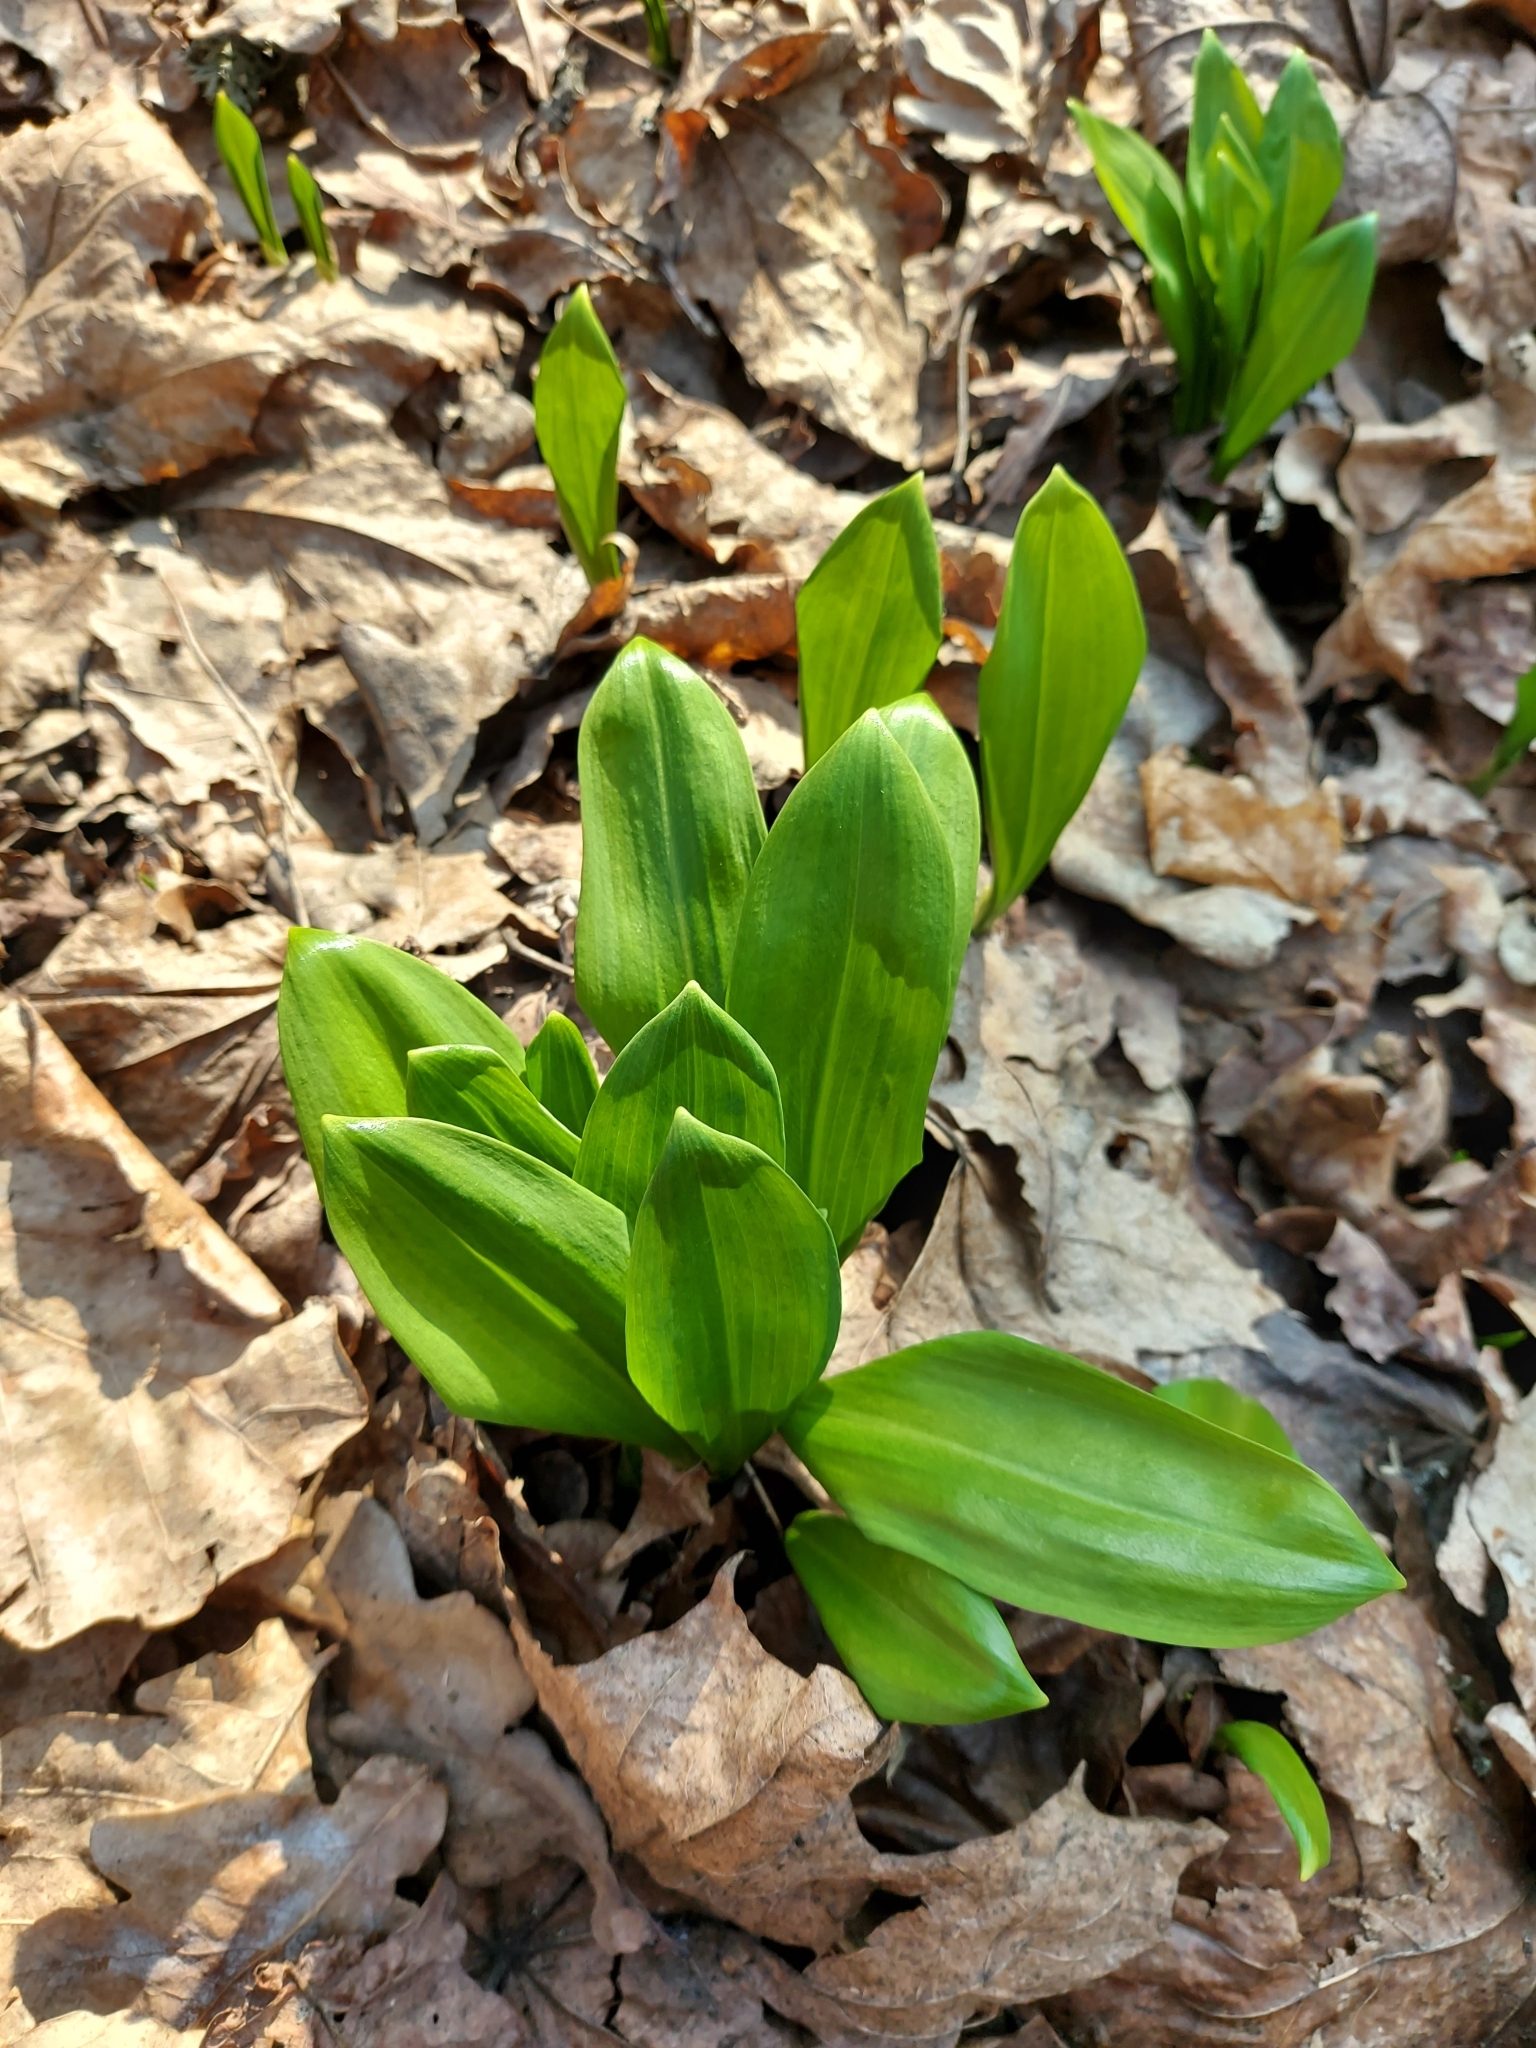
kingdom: Plantae
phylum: Tracheophyta
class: Liliopsida
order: Asparagales
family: Amaryllidaceae
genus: Allium
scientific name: Allium ursinum
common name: Ramsons
